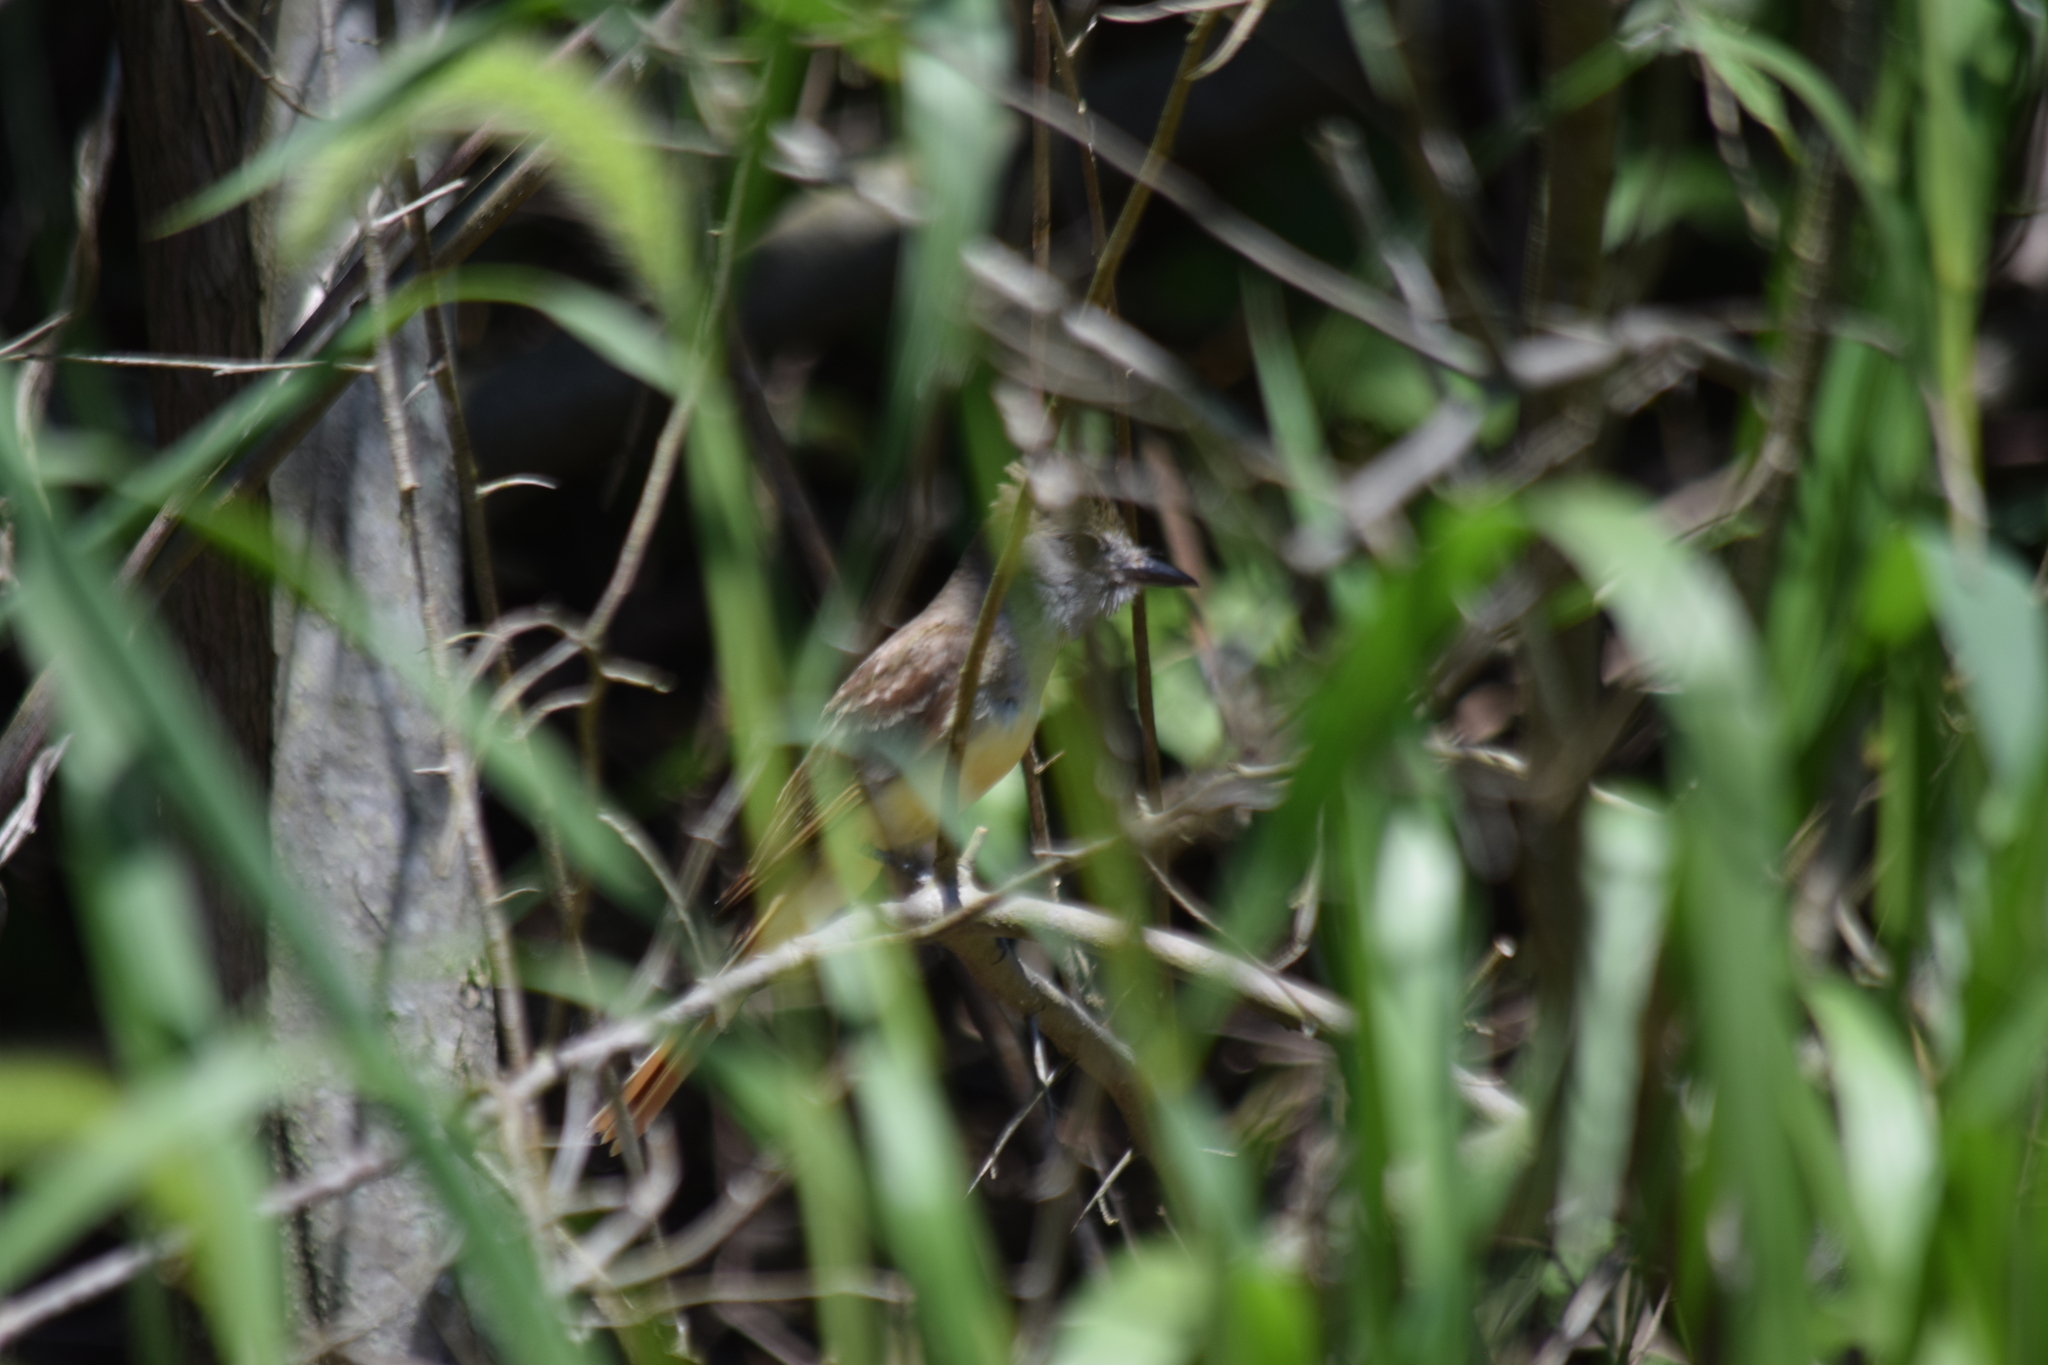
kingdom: Animalia
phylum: Chordata
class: Aves
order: Passeriformes
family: Tyrannidae
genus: Myiarchus
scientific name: Myiarchus crinitus
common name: Great crested flycatcher
